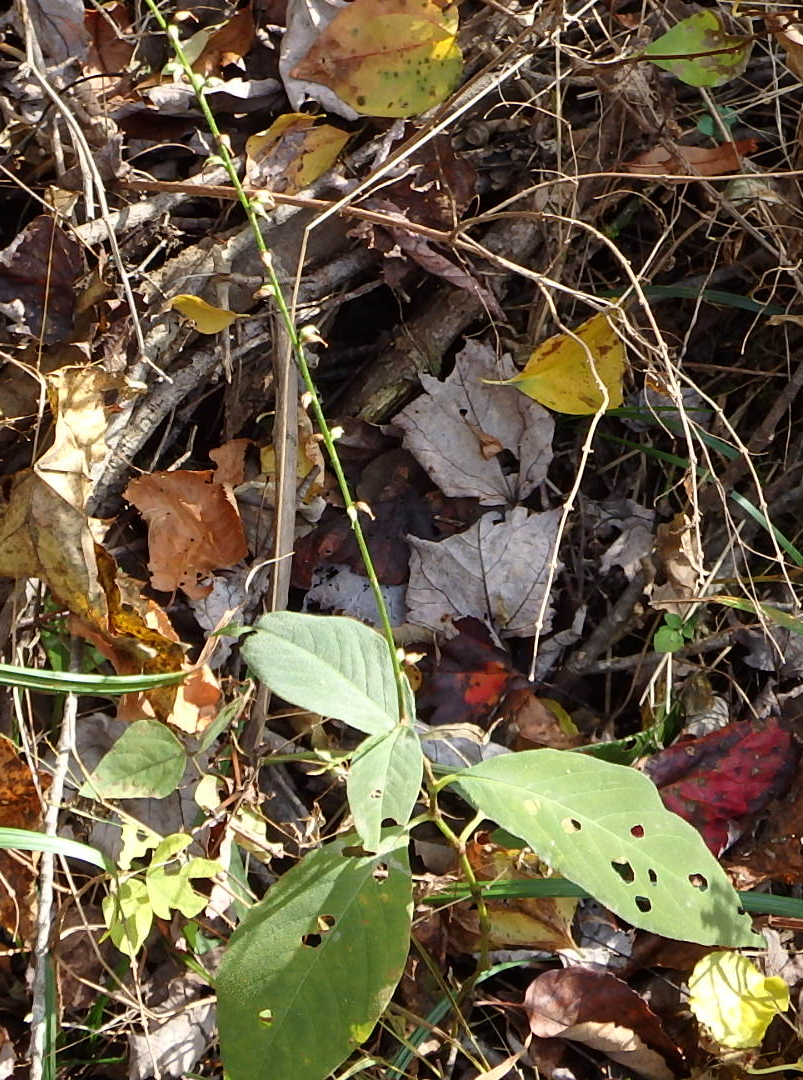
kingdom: Plantae
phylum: Tracheophyta
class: Magnoliopsida
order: Caryophyllales
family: Polygonaceae
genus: Persicaria
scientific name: Persicaria virginiana
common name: Jumpseed
